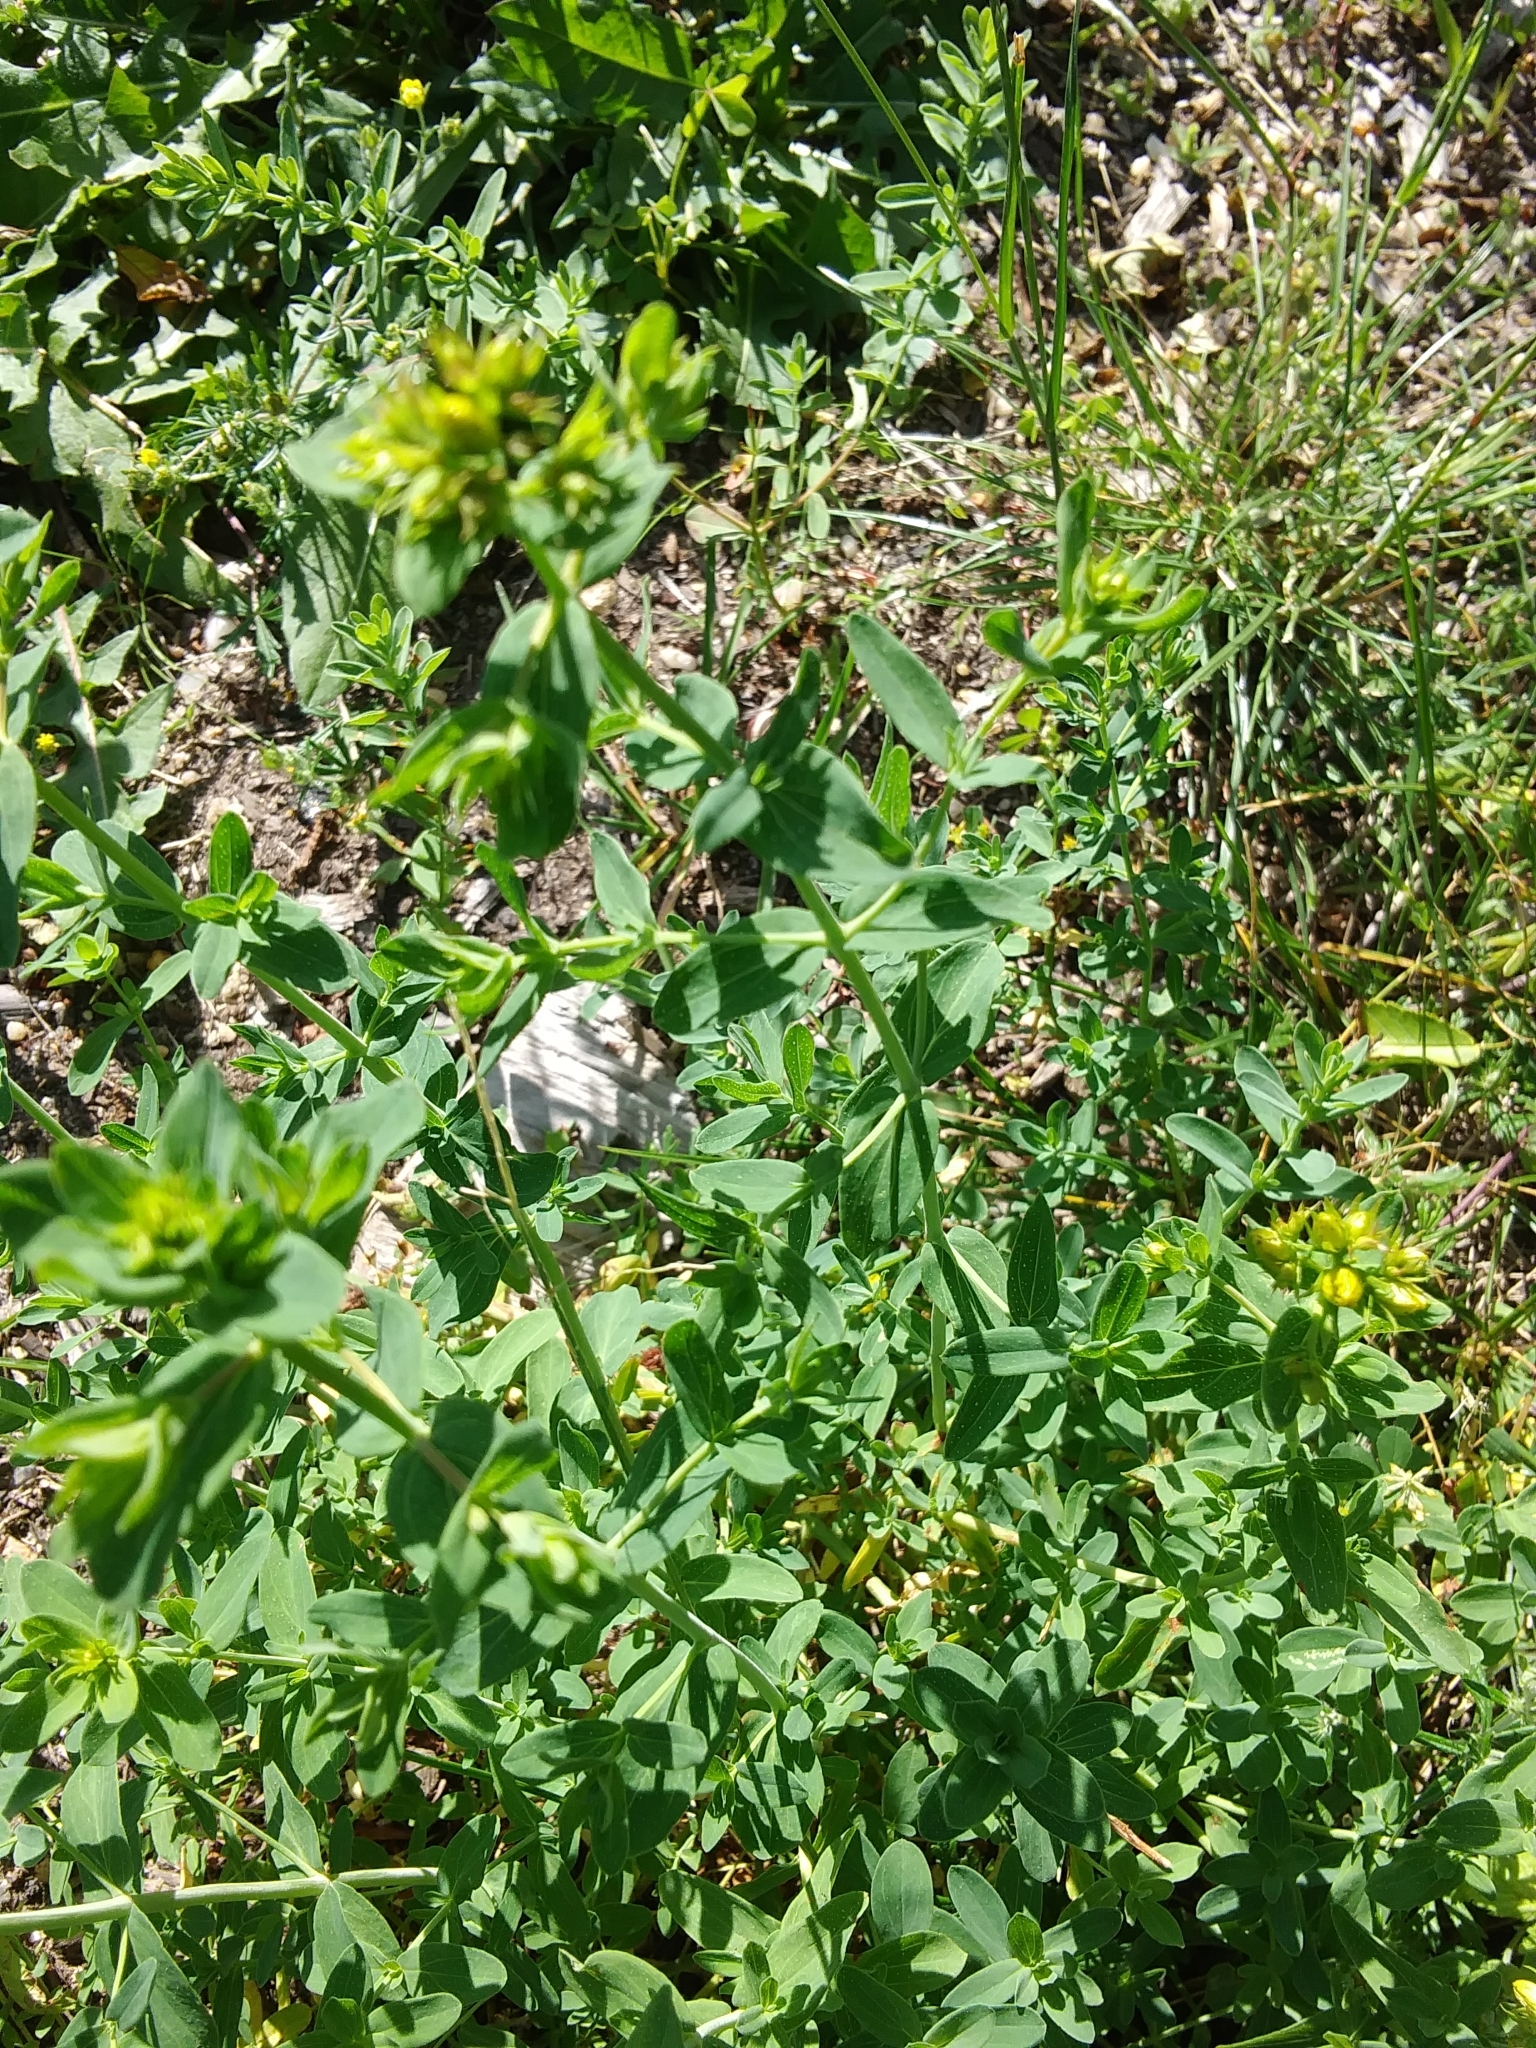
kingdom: Plantae
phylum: Tracheophyta
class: Magnoliopsida
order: Fabales
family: Fabaceae
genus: Trifolium
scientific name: Trifolium dubium
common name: Suckling clover
